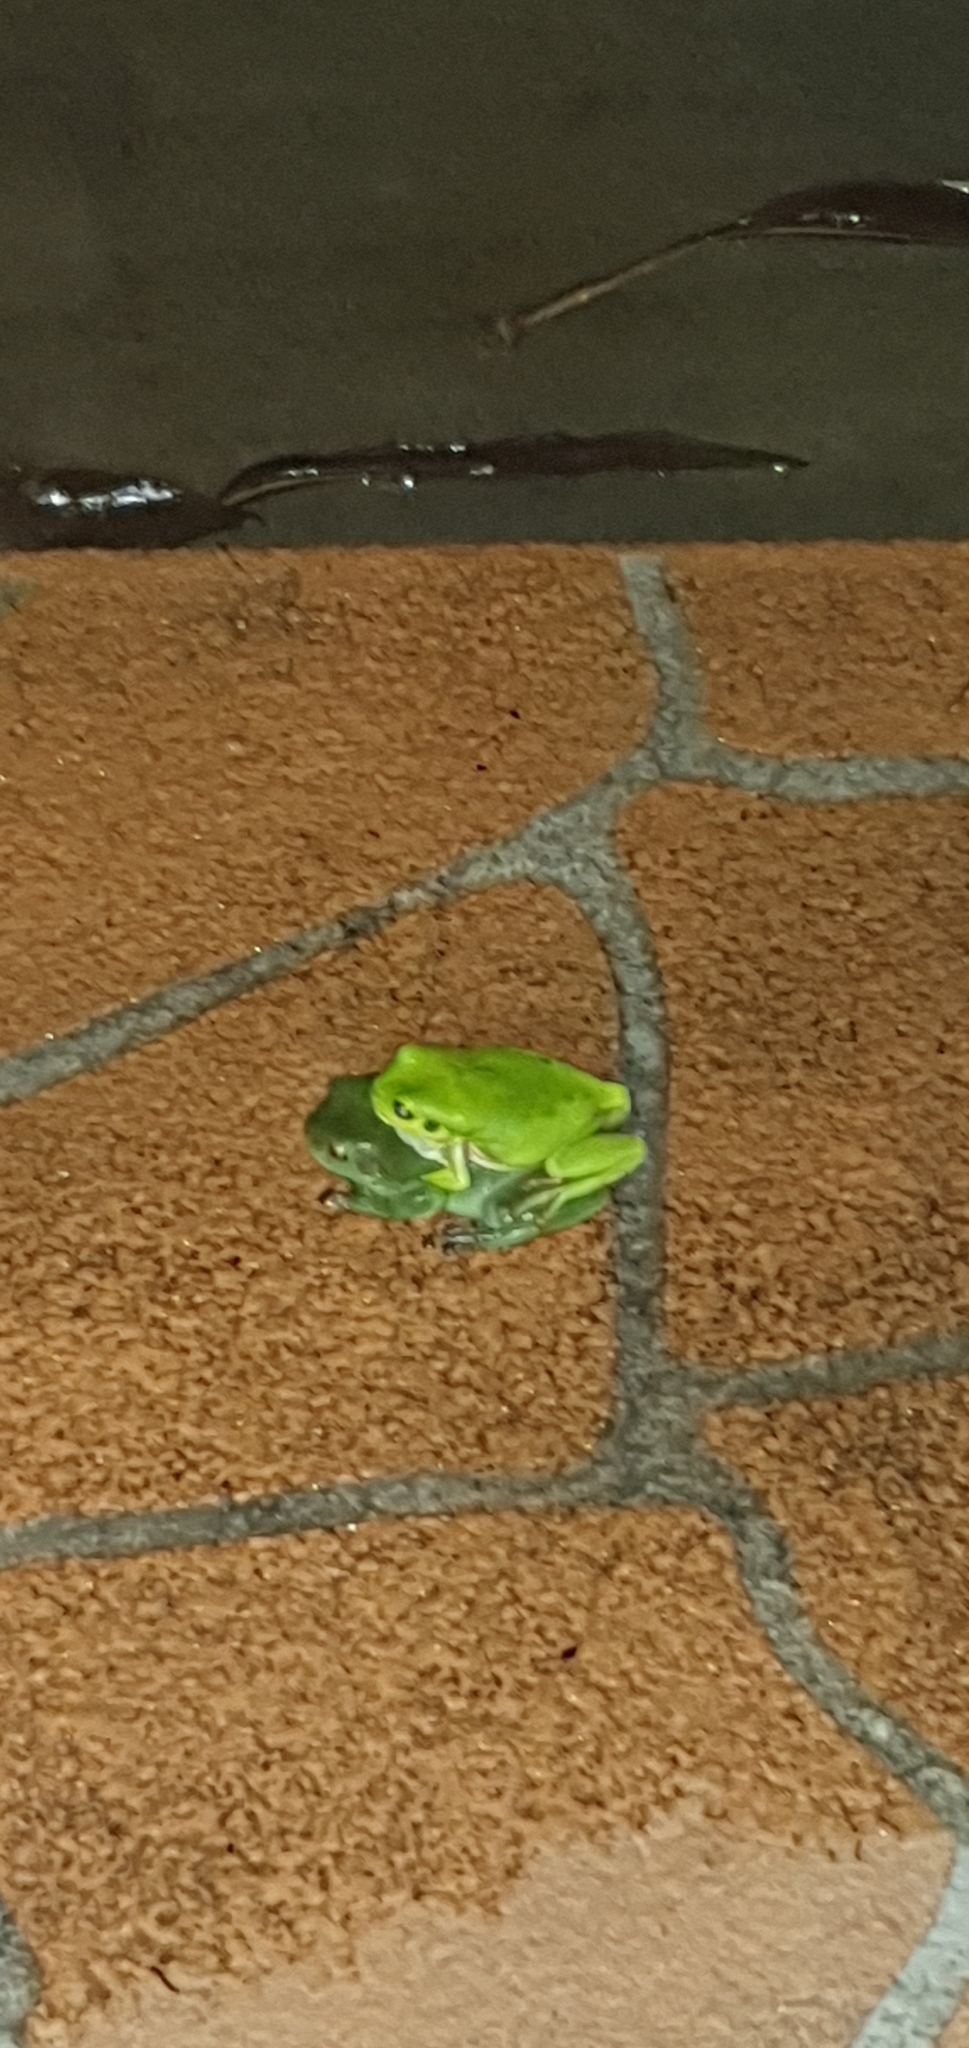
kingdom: Animalia
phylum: Chordata
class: Amphibia
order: Anura
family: Pelodryadidae
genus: Ranoidea
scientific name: Ranoidea caerulea
